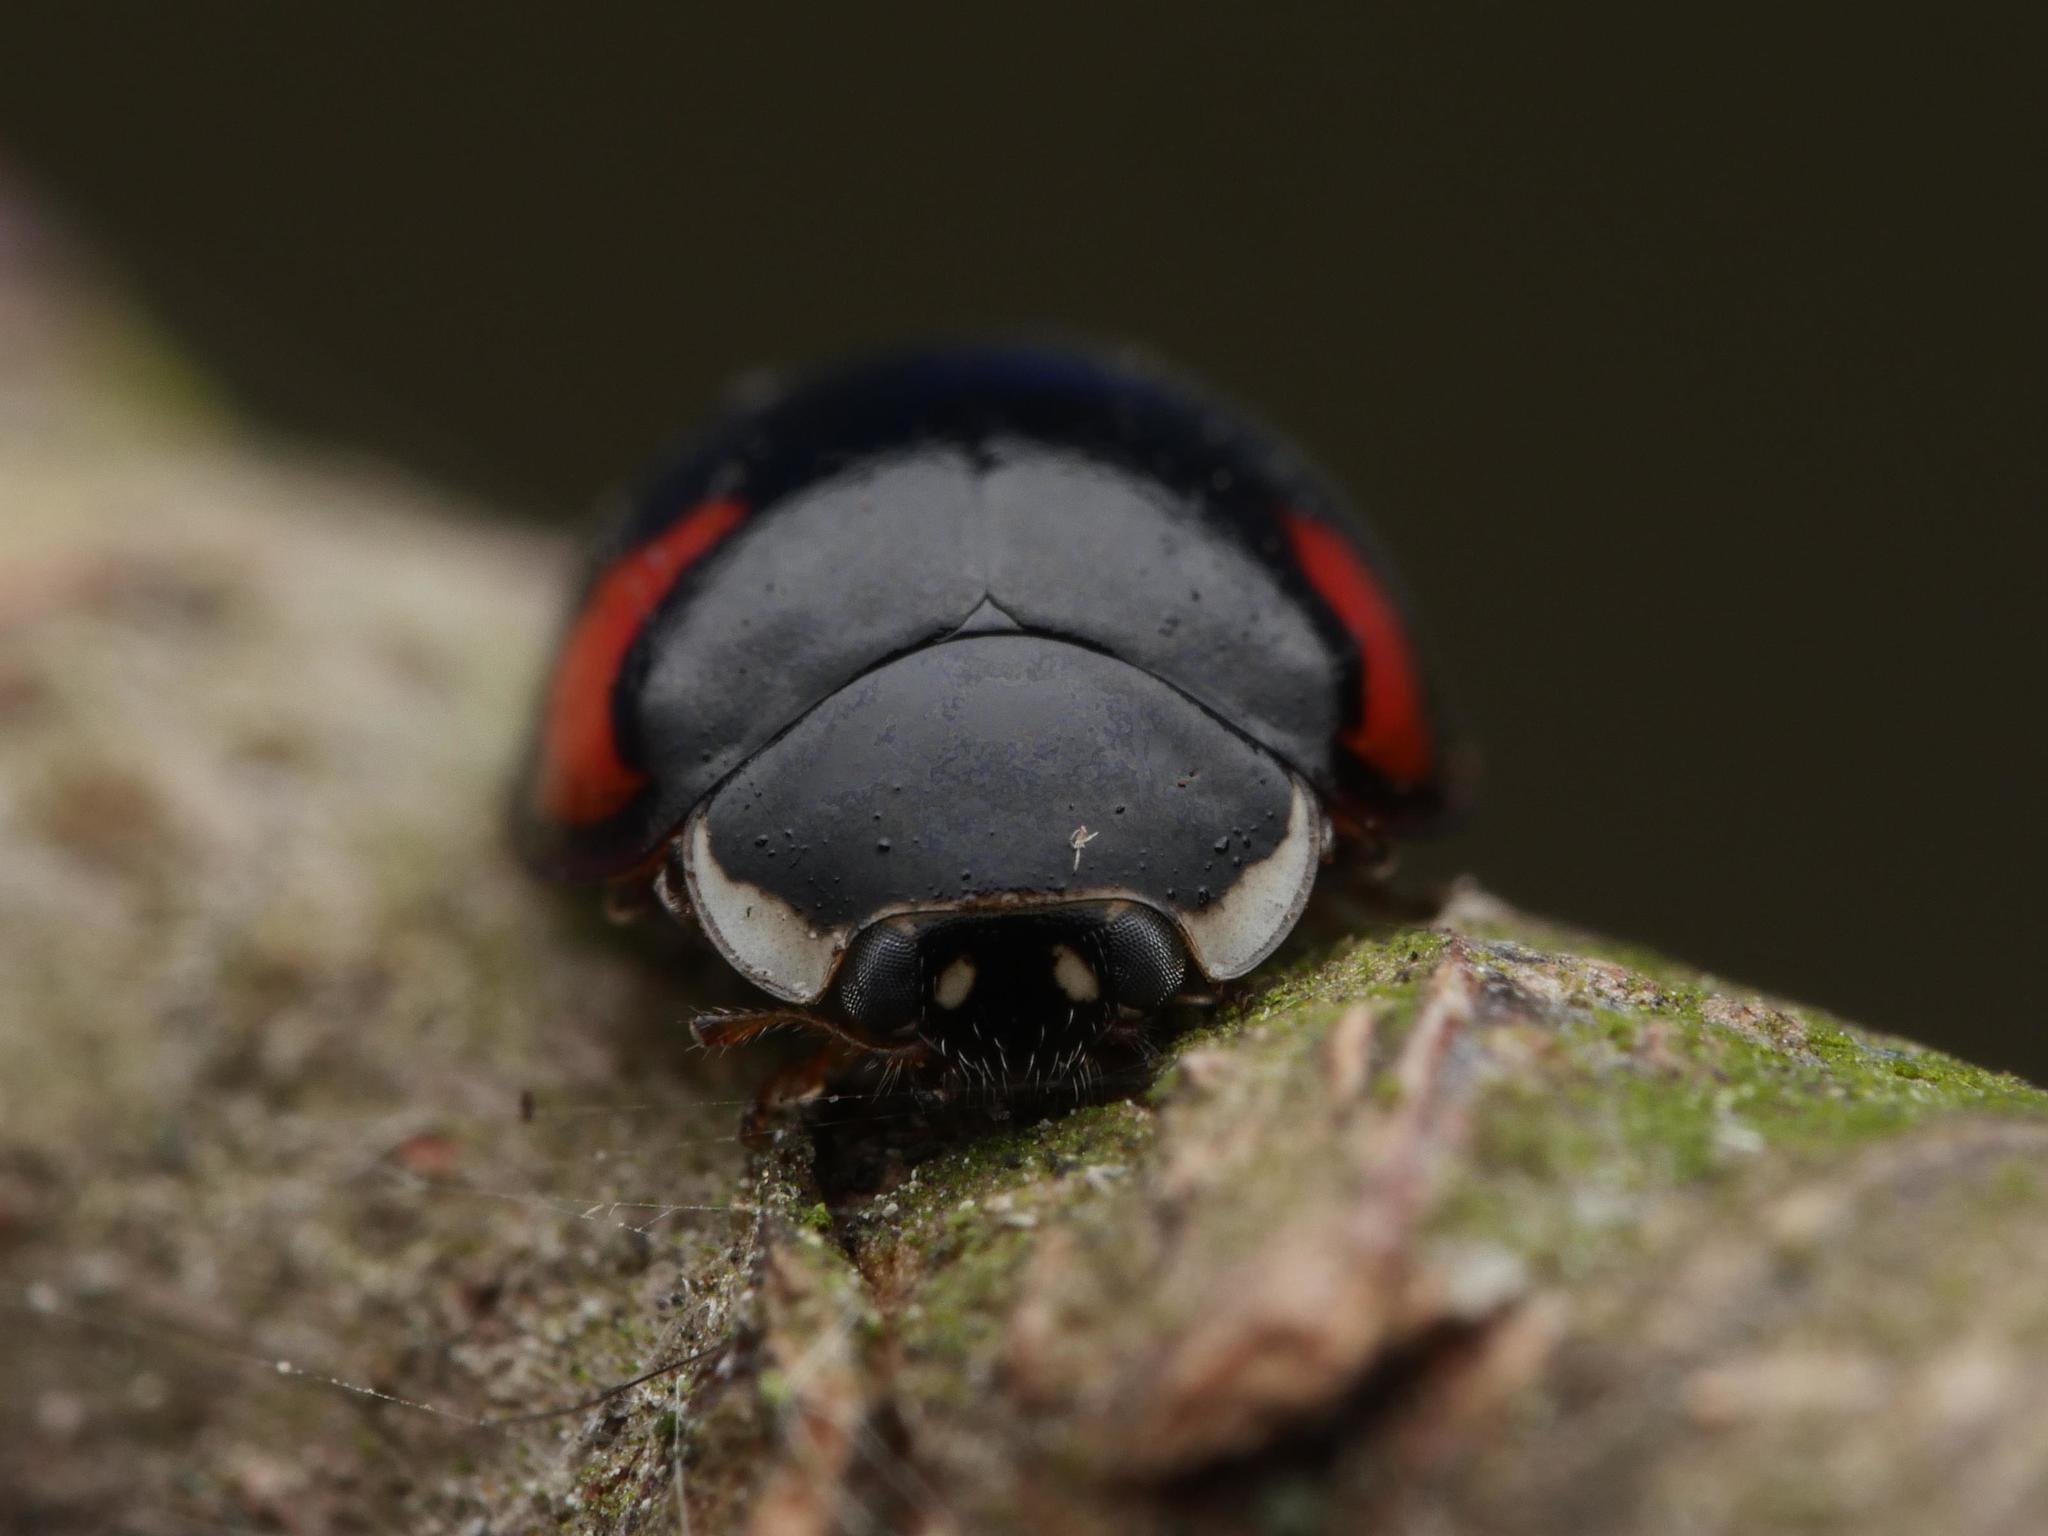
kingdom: Animalia
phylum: Arthropoda
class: Insecta
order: Coleoptera
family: Coccinellidae
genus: Adalia
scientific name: Adalia decempunctata
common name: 10-spot ladybird
